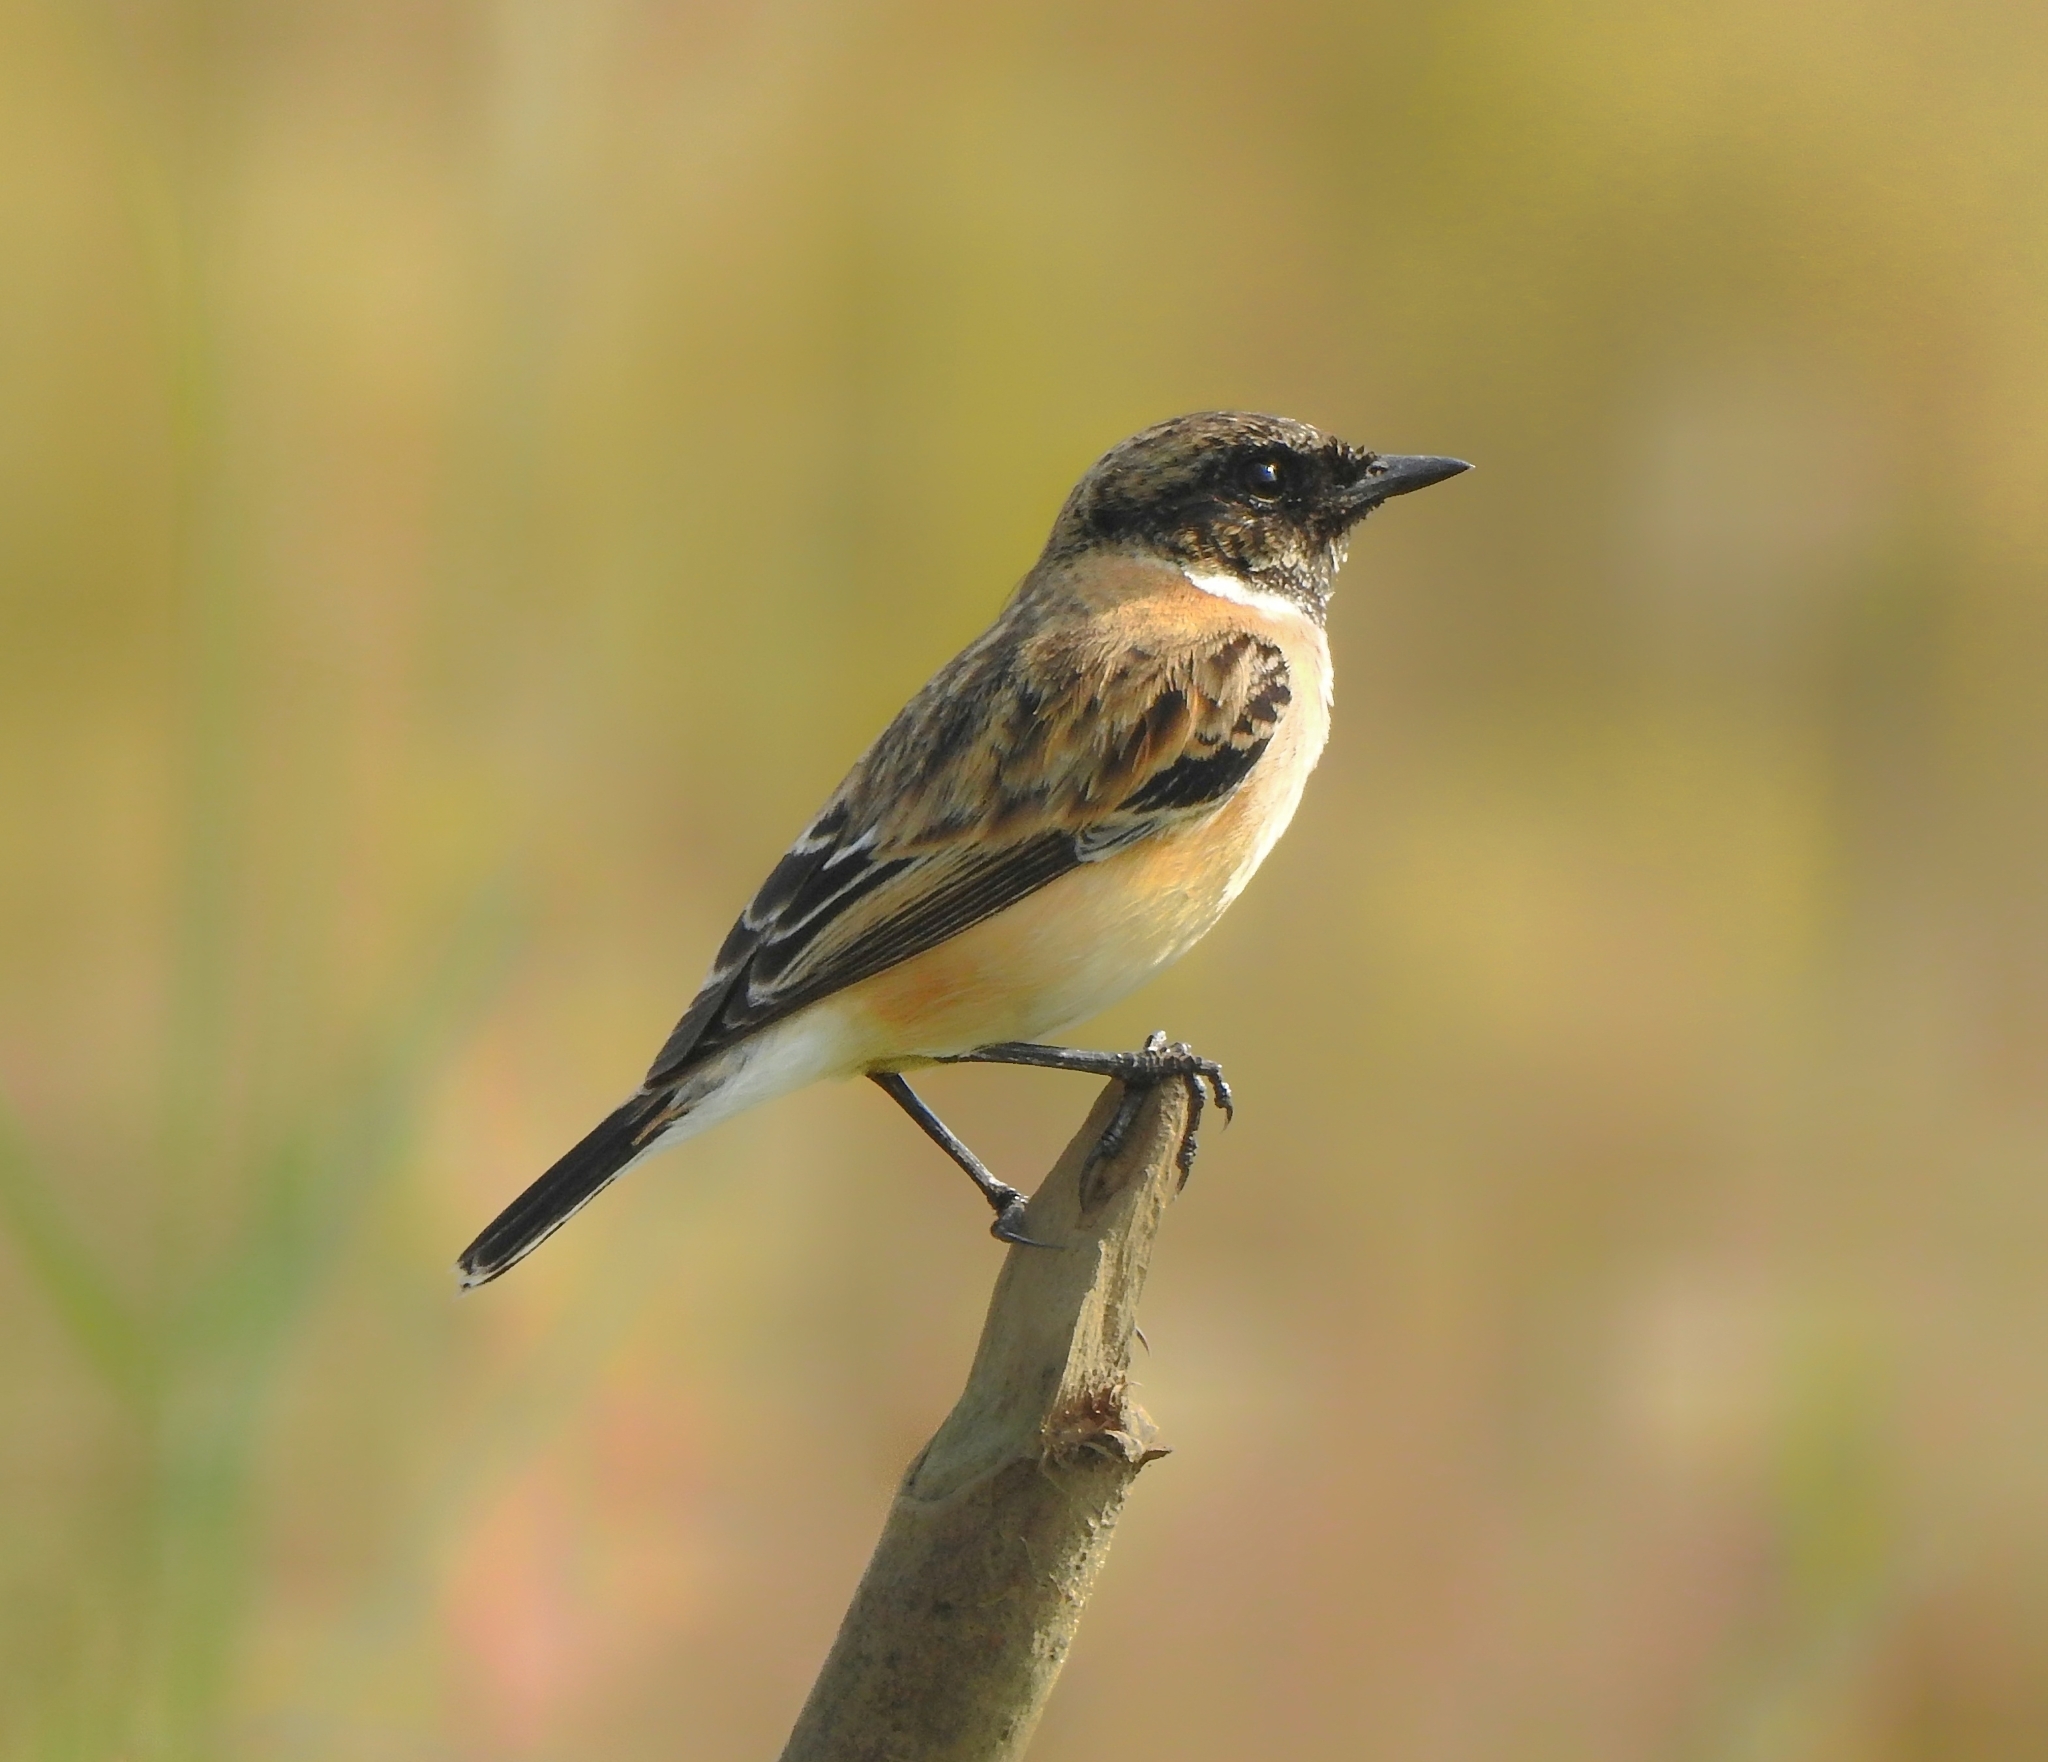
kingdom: Animalia
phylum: Chordata
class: Aves
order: Passeriformes
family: Muscicapidae
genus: Saxicola
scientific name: Saxicola maurus
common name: Siberian stonechat
